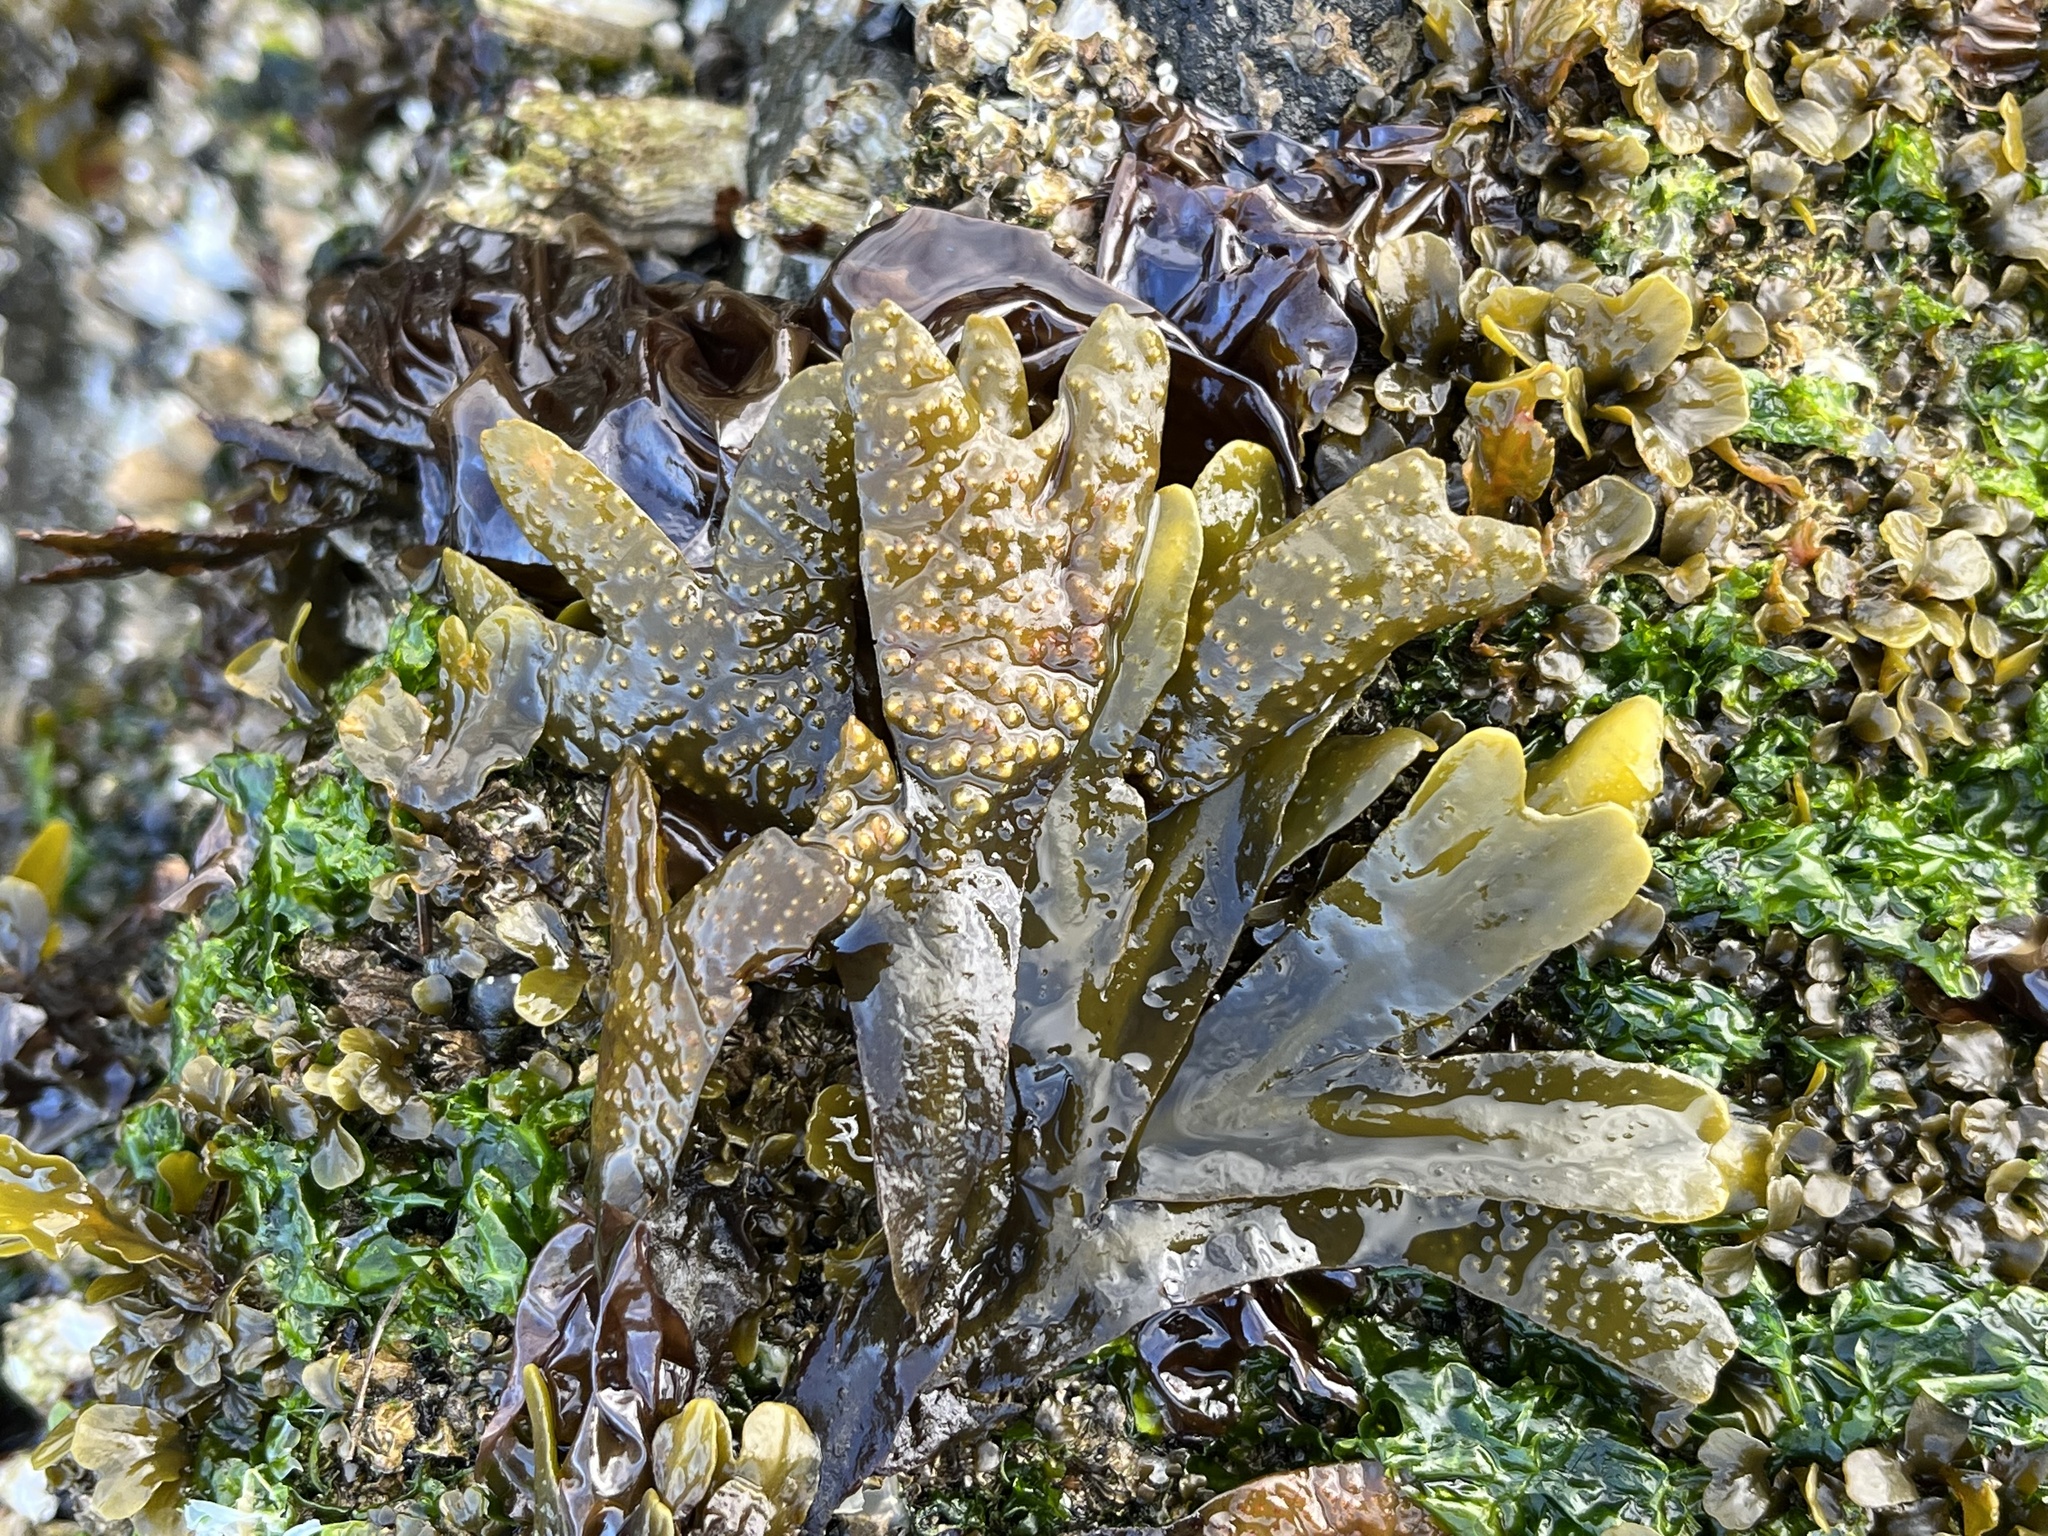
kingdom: Chromista
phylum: Ochrophyta
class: Phaeophyceae
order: Fucales
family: Fucaceae
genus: Fucus
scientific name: Fucus distichus
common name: Rockweed
